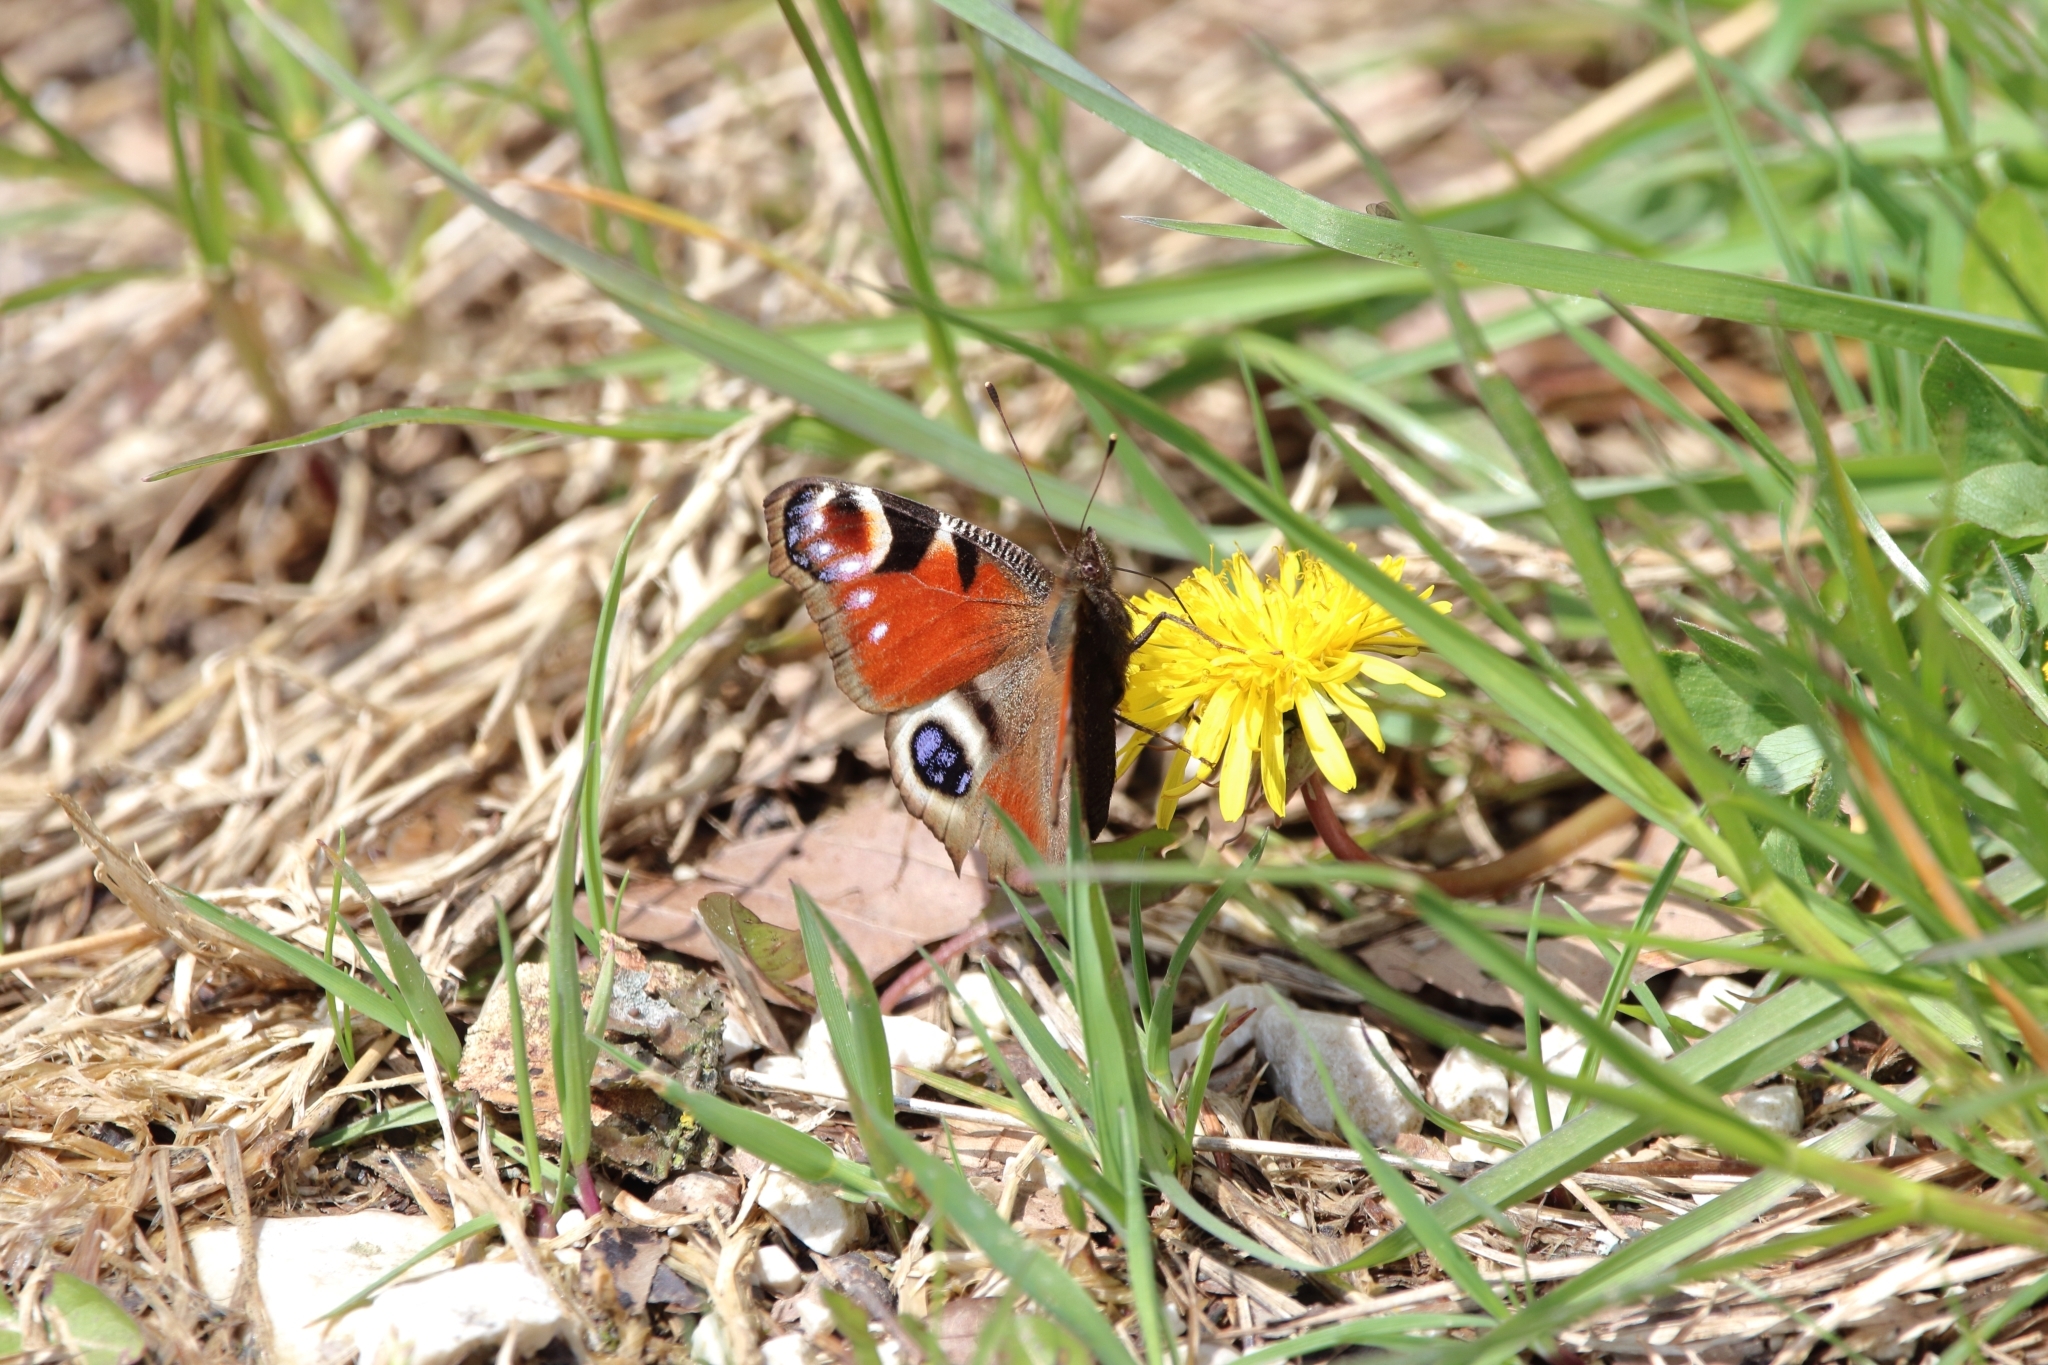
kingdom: Animalia
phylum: Arthropoda
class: Insecta
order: Lepidoptera
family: Nymphalidae
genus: Aglais
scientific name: Aglais io
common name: Peacock
